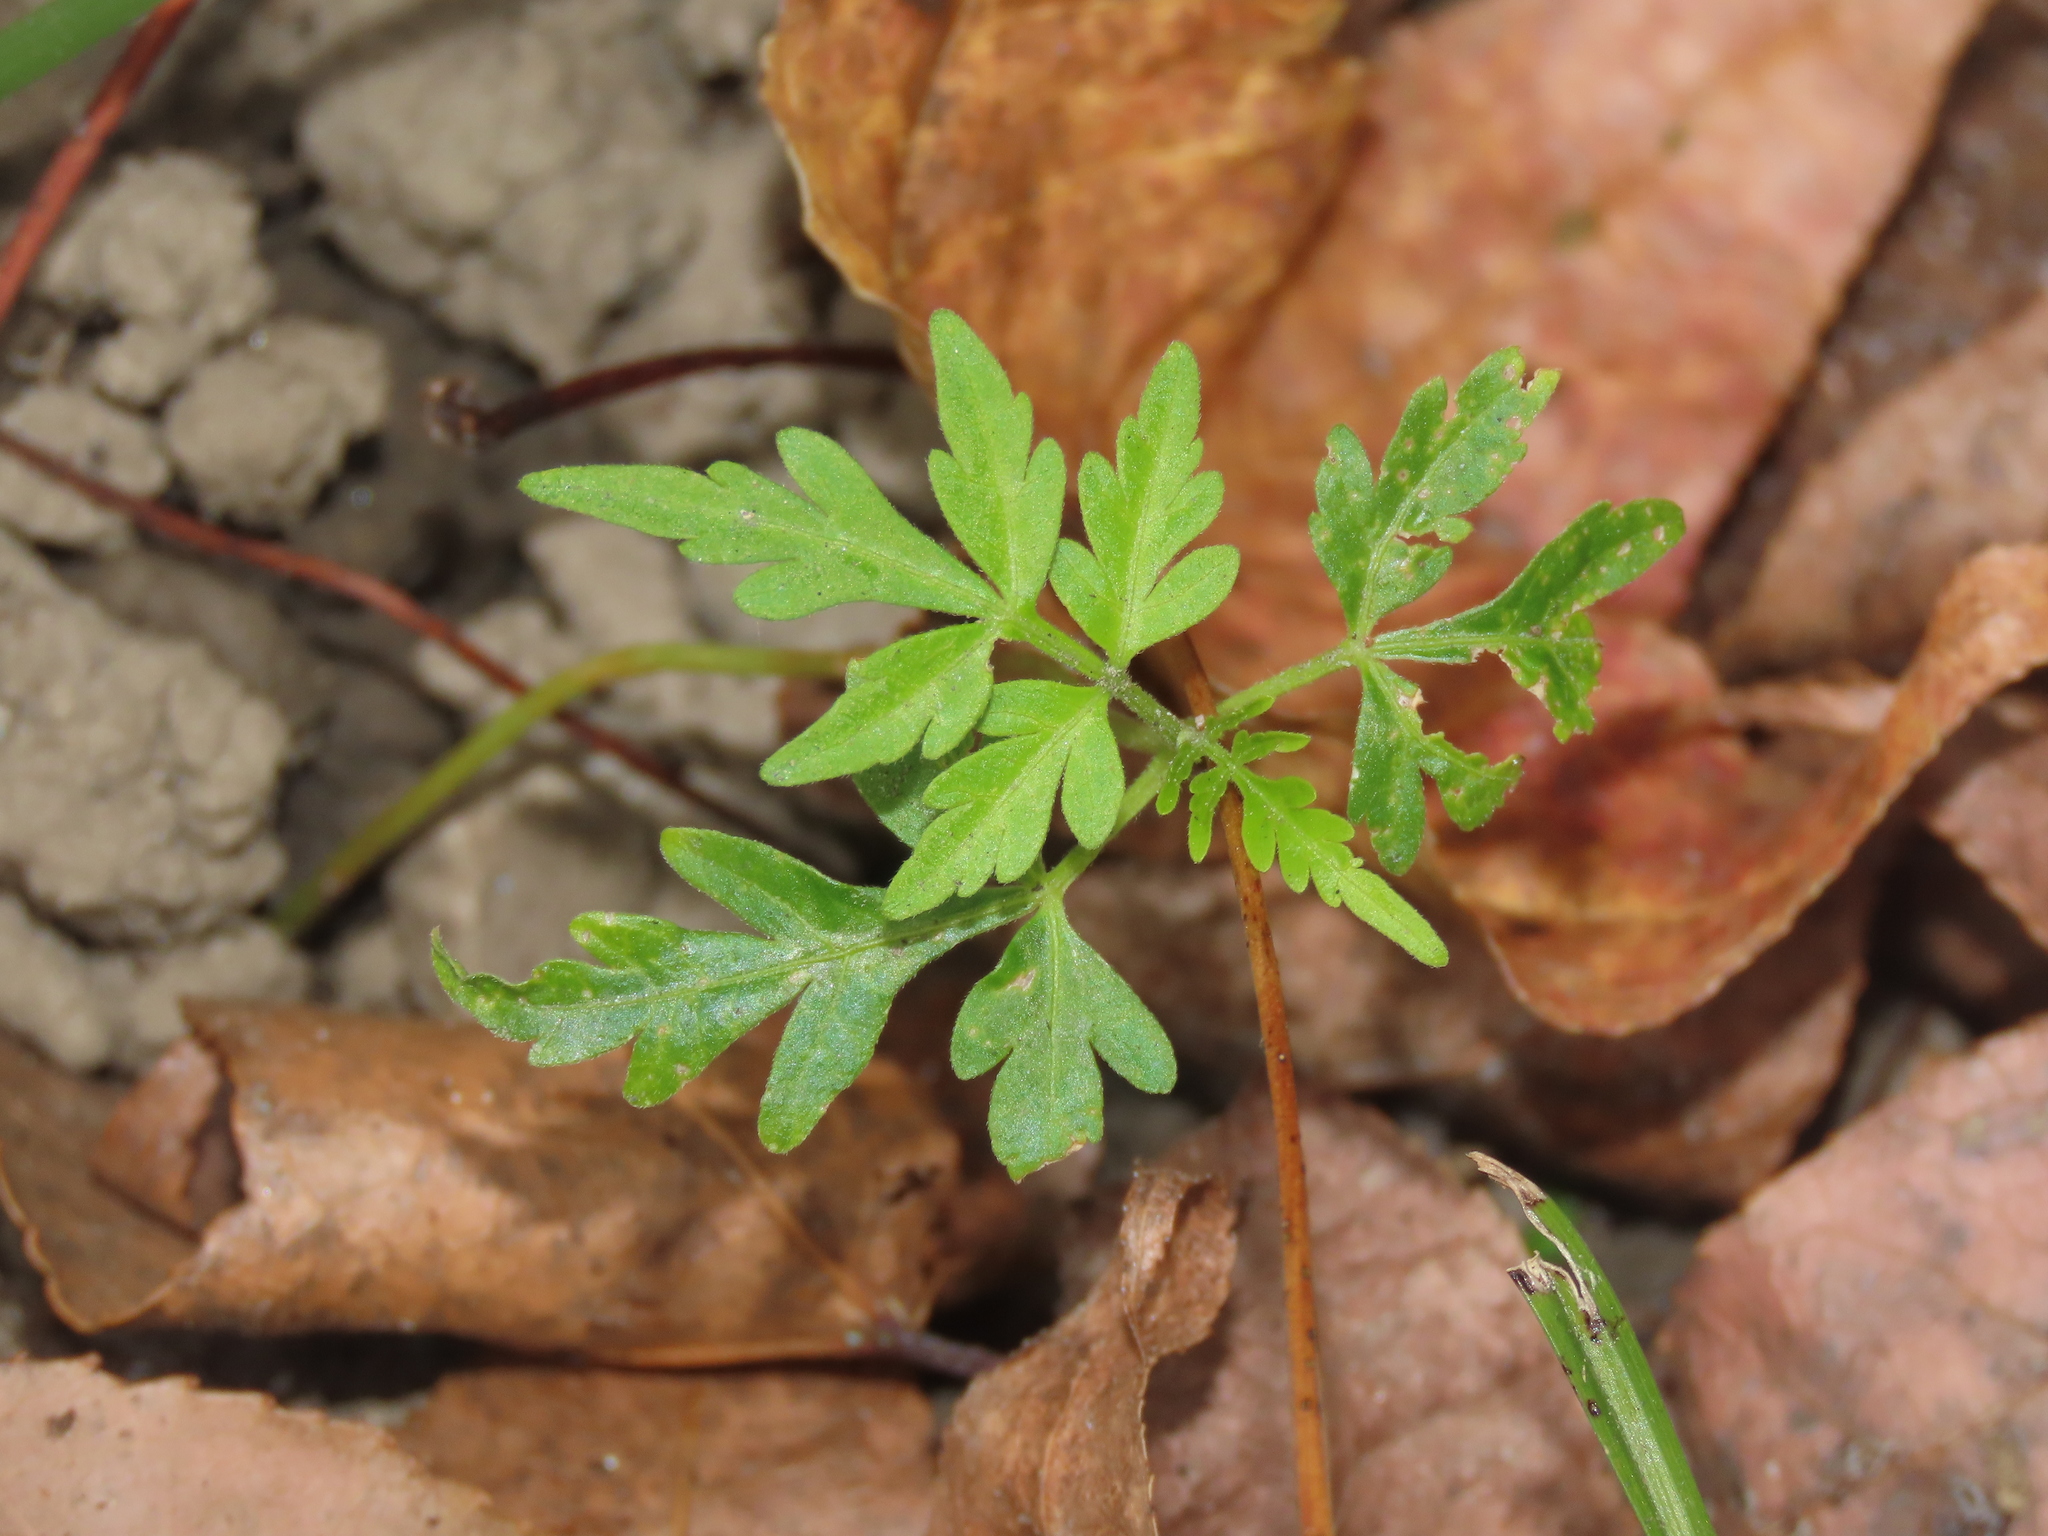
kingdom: Plantae
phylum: Tracheophyta
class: Magnoliopsida
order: Sapindales
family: Meliaceae
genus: Melia
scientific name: Melia azedarach
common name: Chinaberrytree
